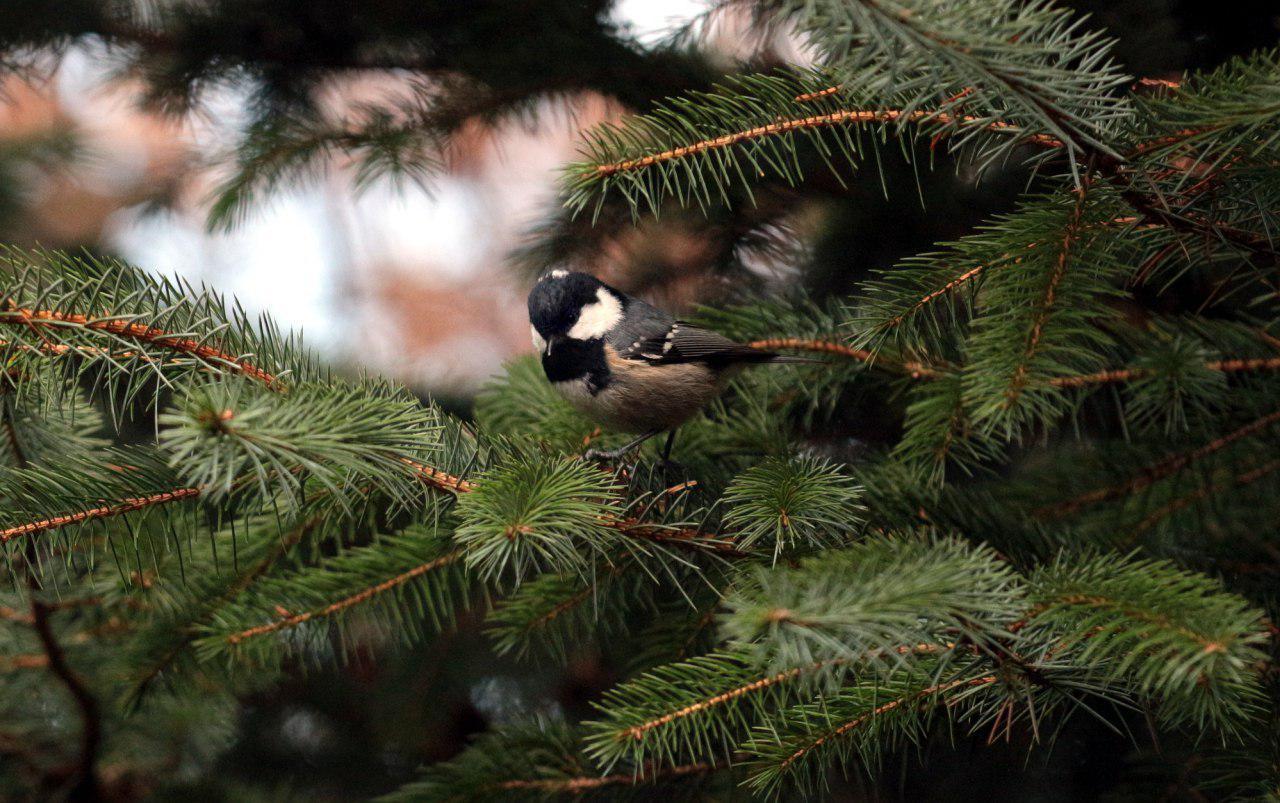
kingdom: Animalia
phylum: Chordata
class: Aves
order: Passeriformes
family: Paridae
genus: Periparus
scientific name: Periparus ater
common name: Coal tit
